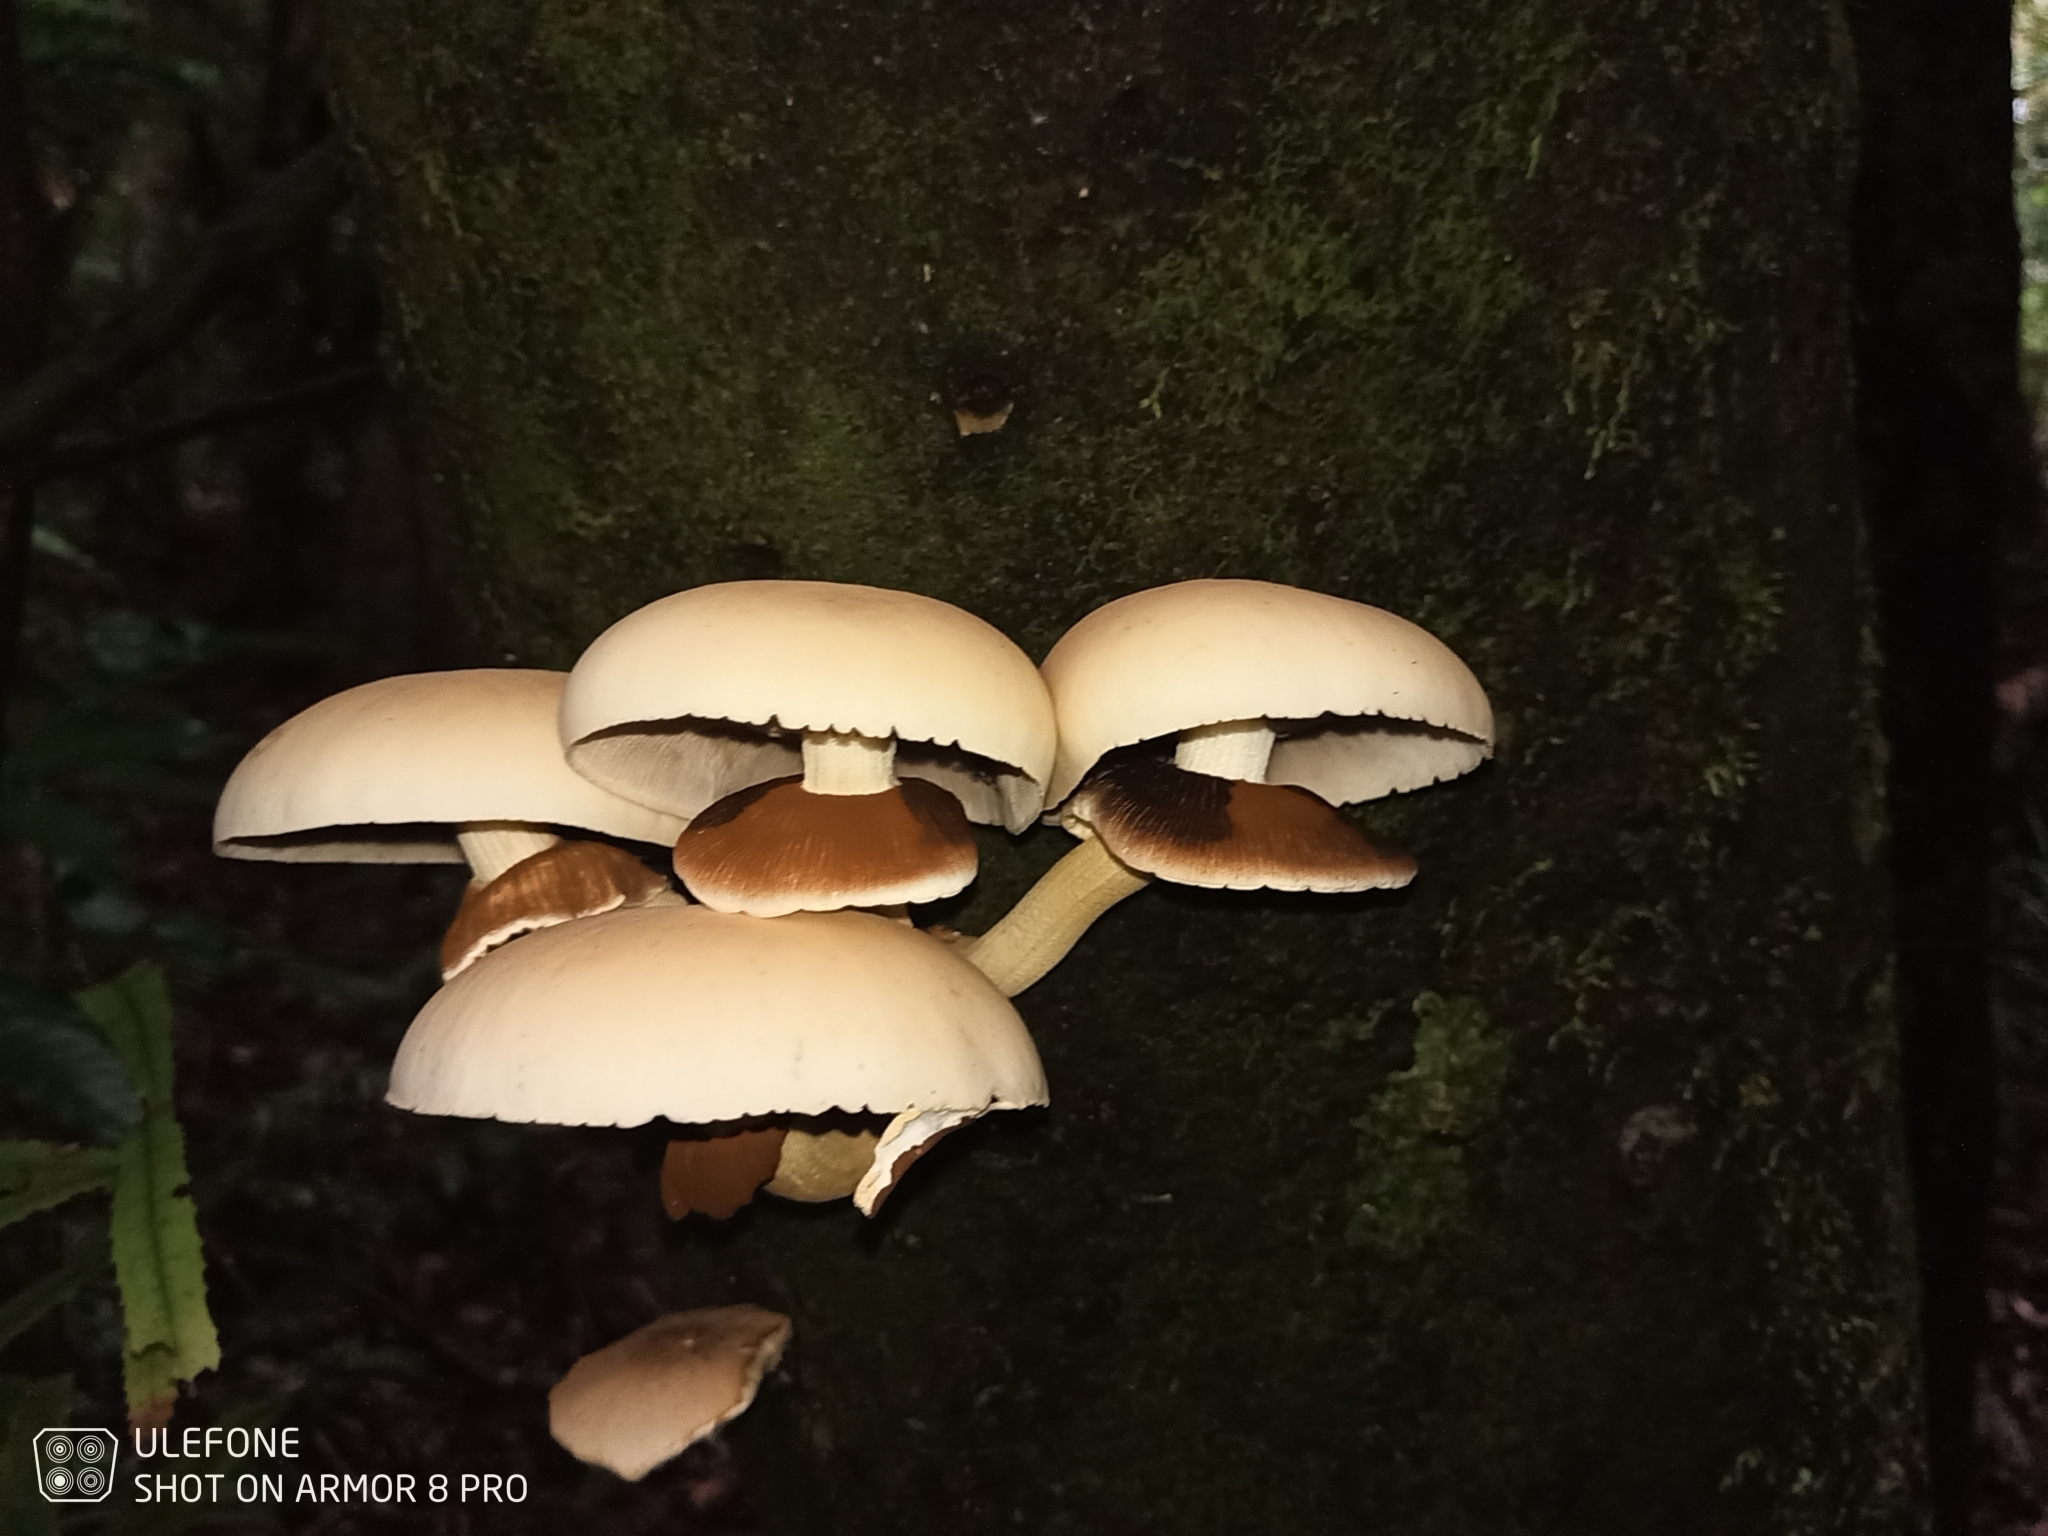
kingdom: Fungi
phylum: Basidiomycota
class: Agaricomycetes
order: Agaricales
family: Tubariaceae
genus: Cyclocybe
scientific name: Cyclocybe parasitica
